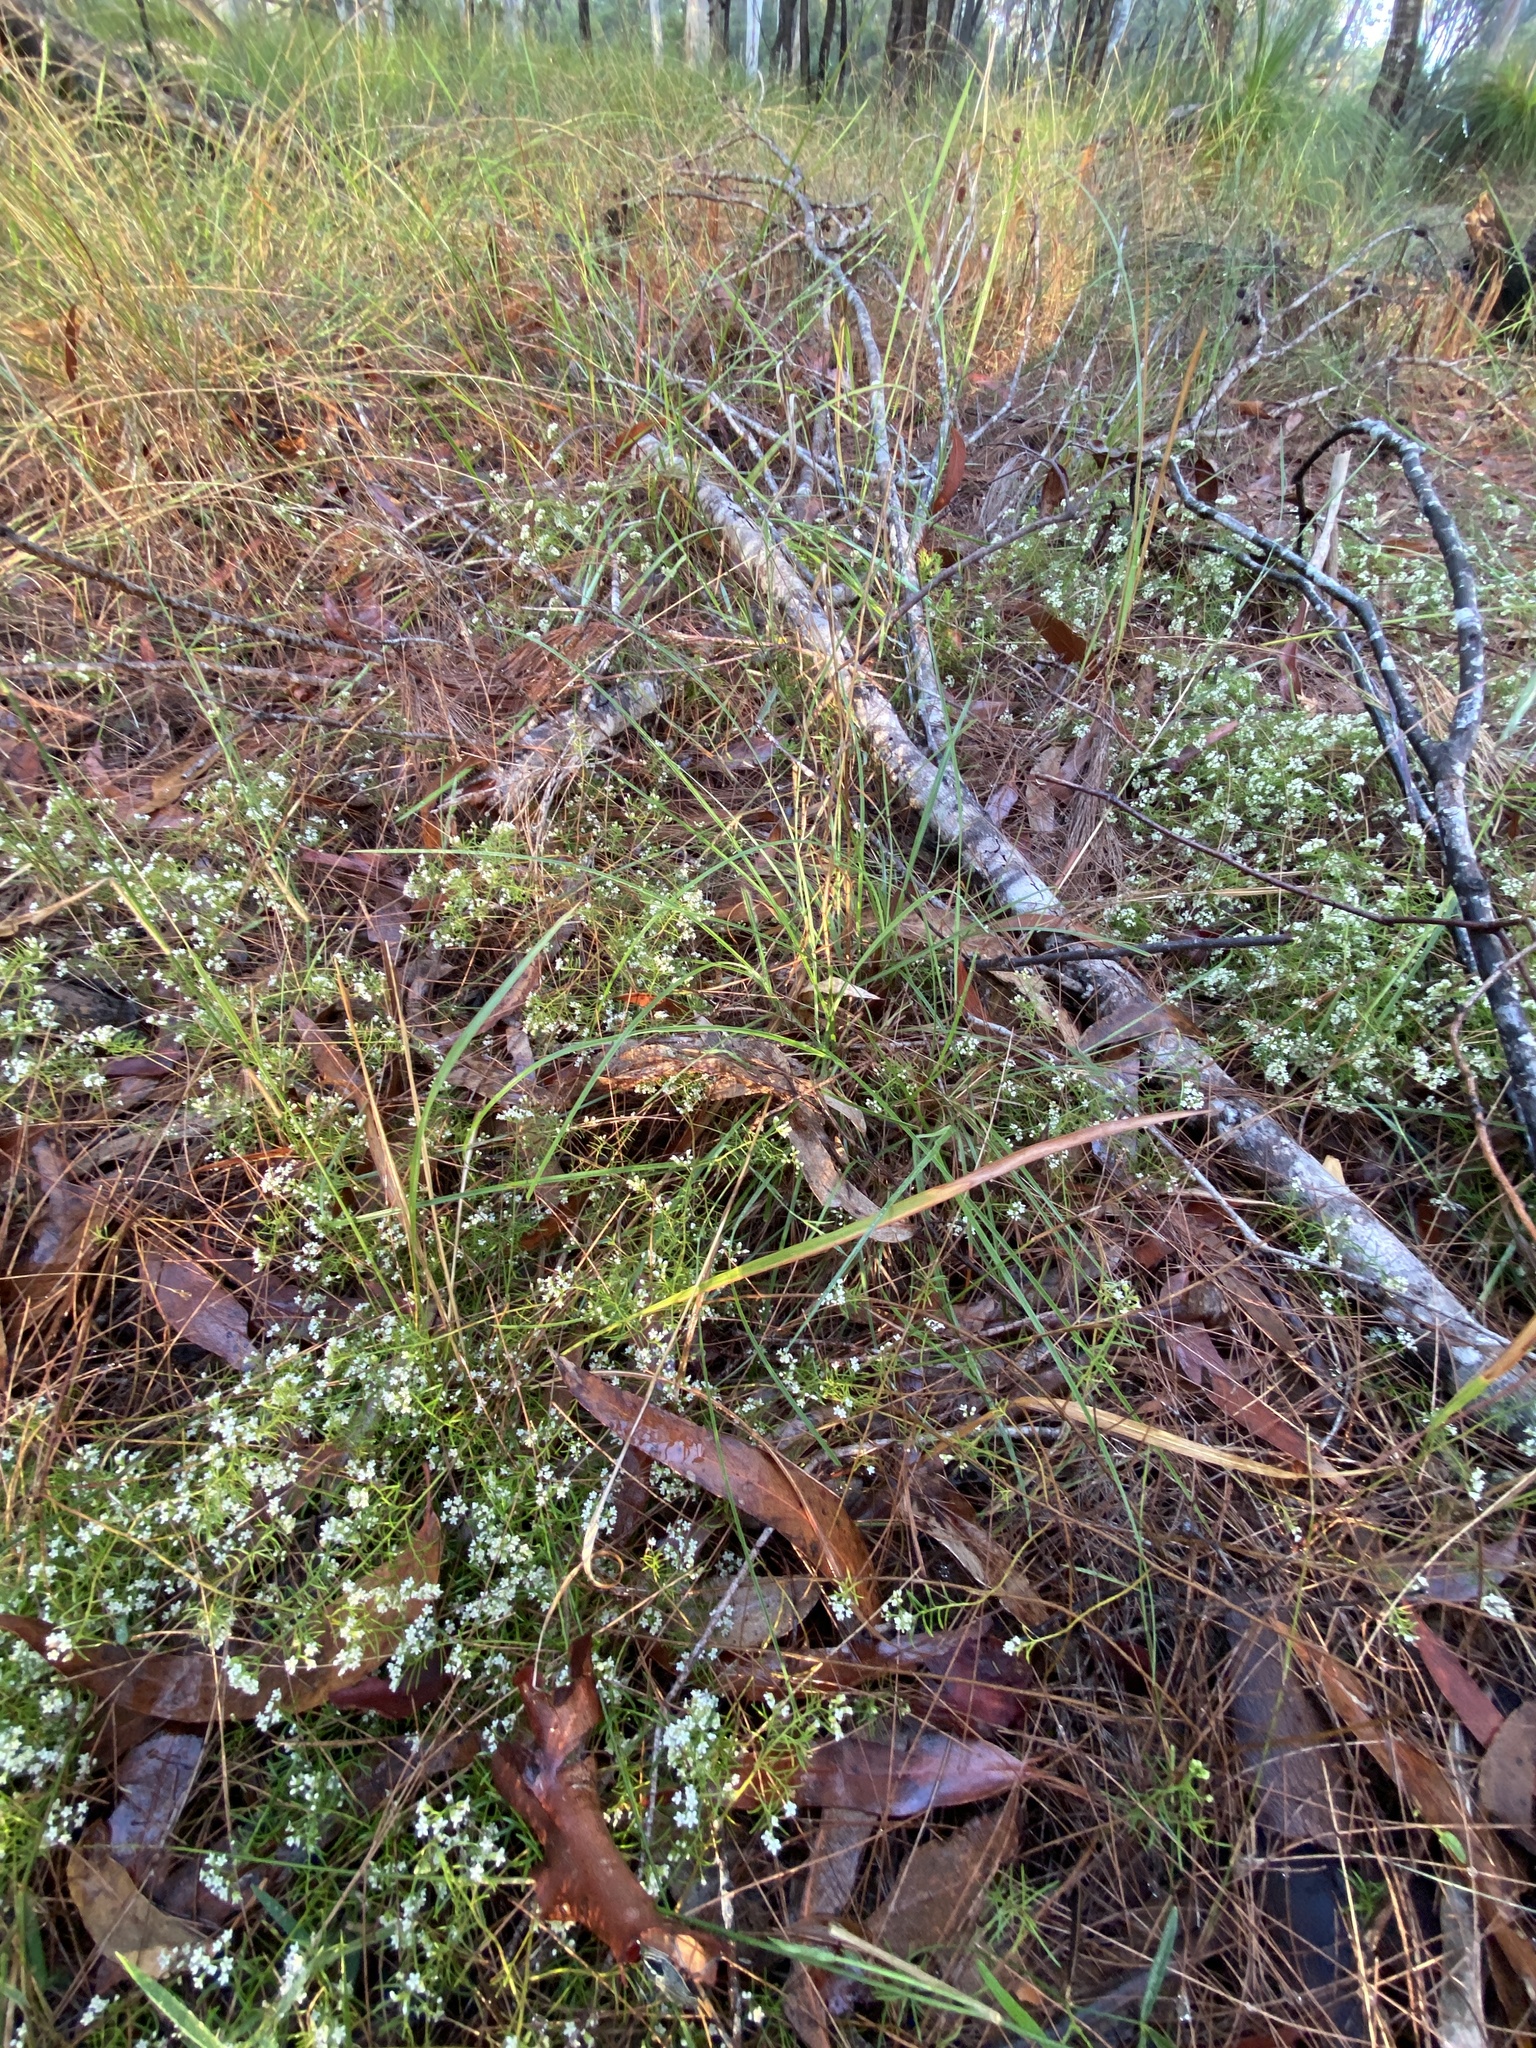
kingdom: Plantae
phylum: Tracheophyta
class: Magnoliopsida
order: Apiales
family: Apiaceae
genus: Platysace
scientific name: Platysace ericoides
